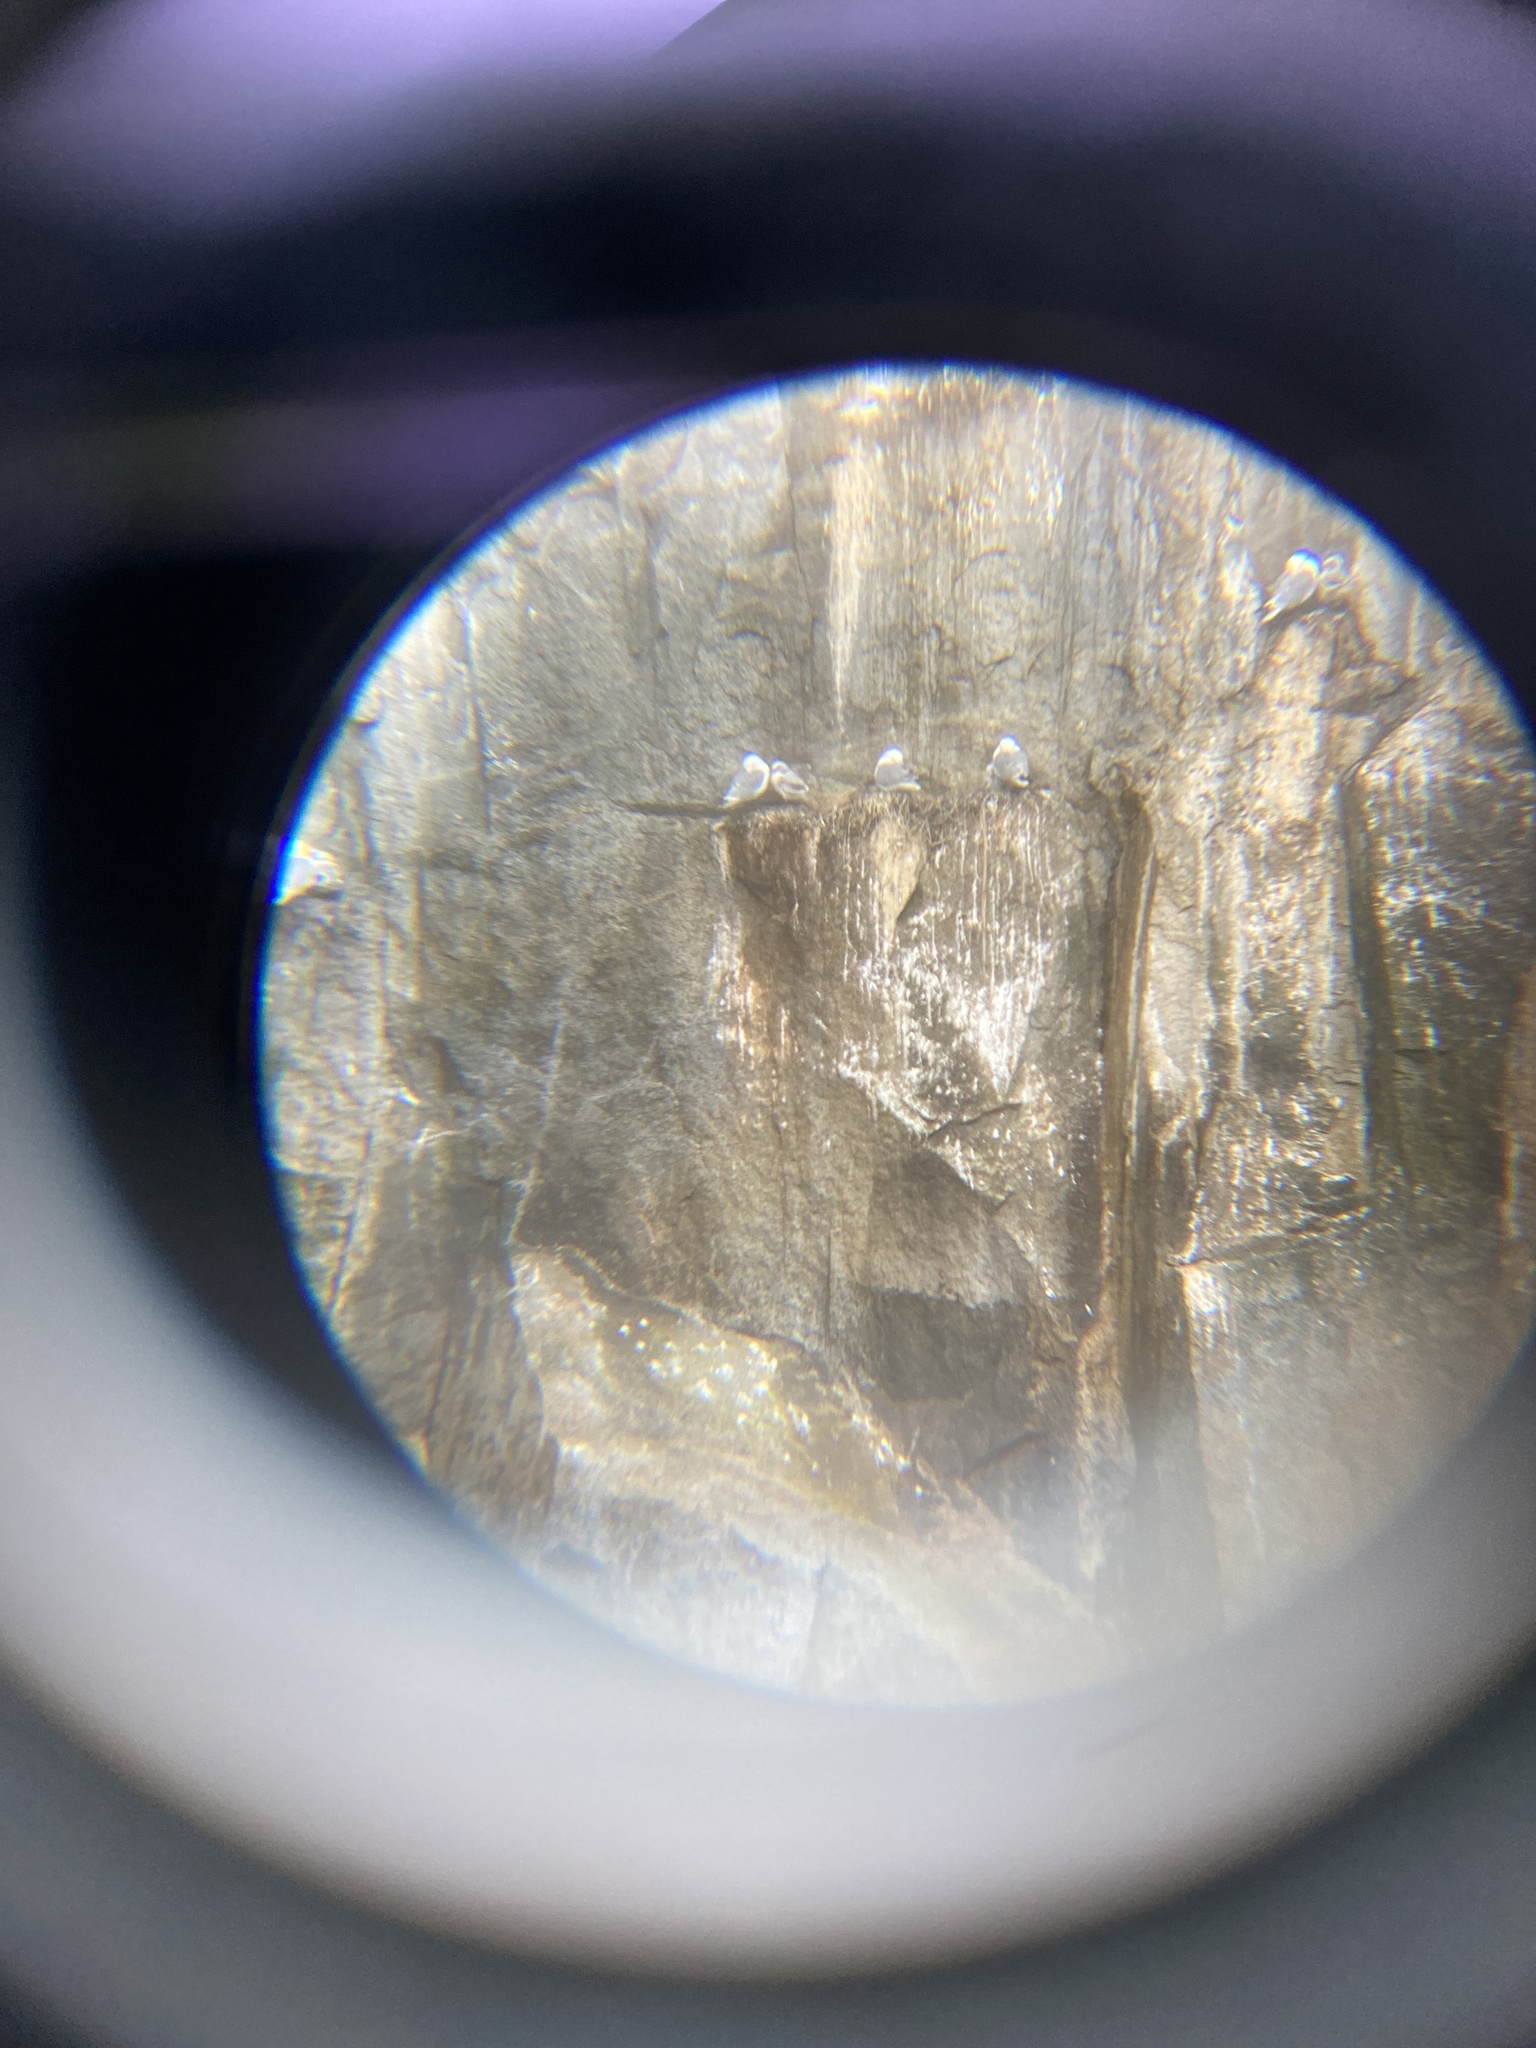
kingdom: Animalia
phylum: Chordata
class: Aves
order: Charadriiformes
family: Laridae
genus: Rissa
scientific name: Rissa tridactyla
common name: Black-legged kittiwake
